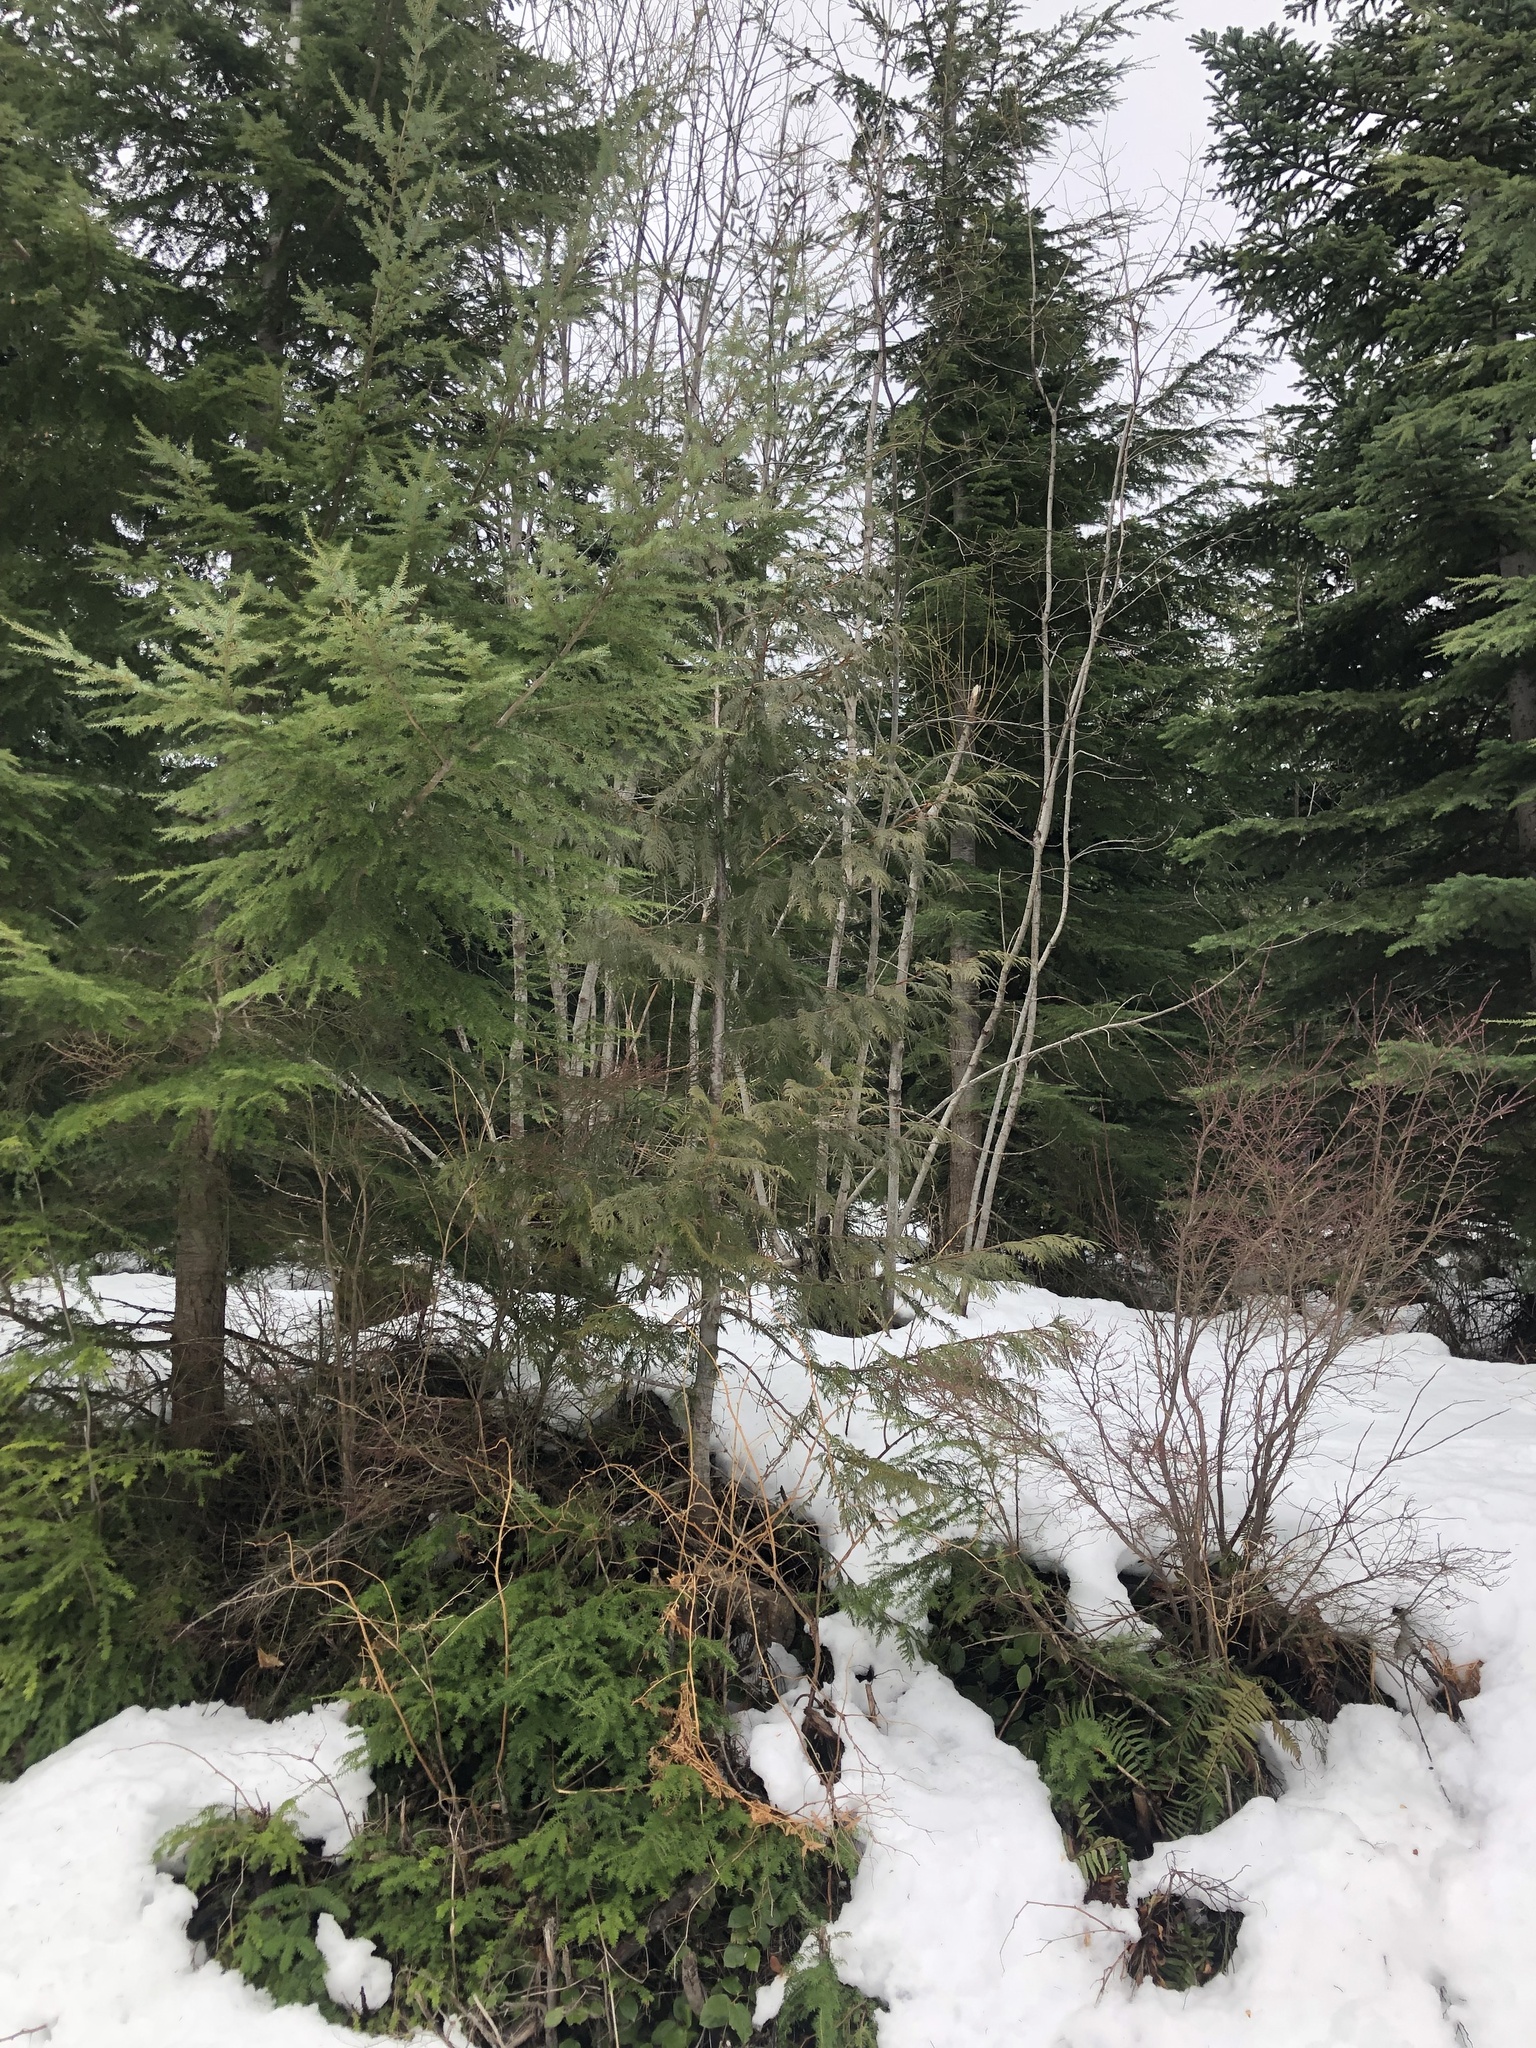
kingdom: Plantae
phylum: Tracheophyta
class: Pinopsida
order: Pinales
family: Cupressaceae
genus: Thuja
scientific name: Thuja plicata
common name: Western red-cedar
